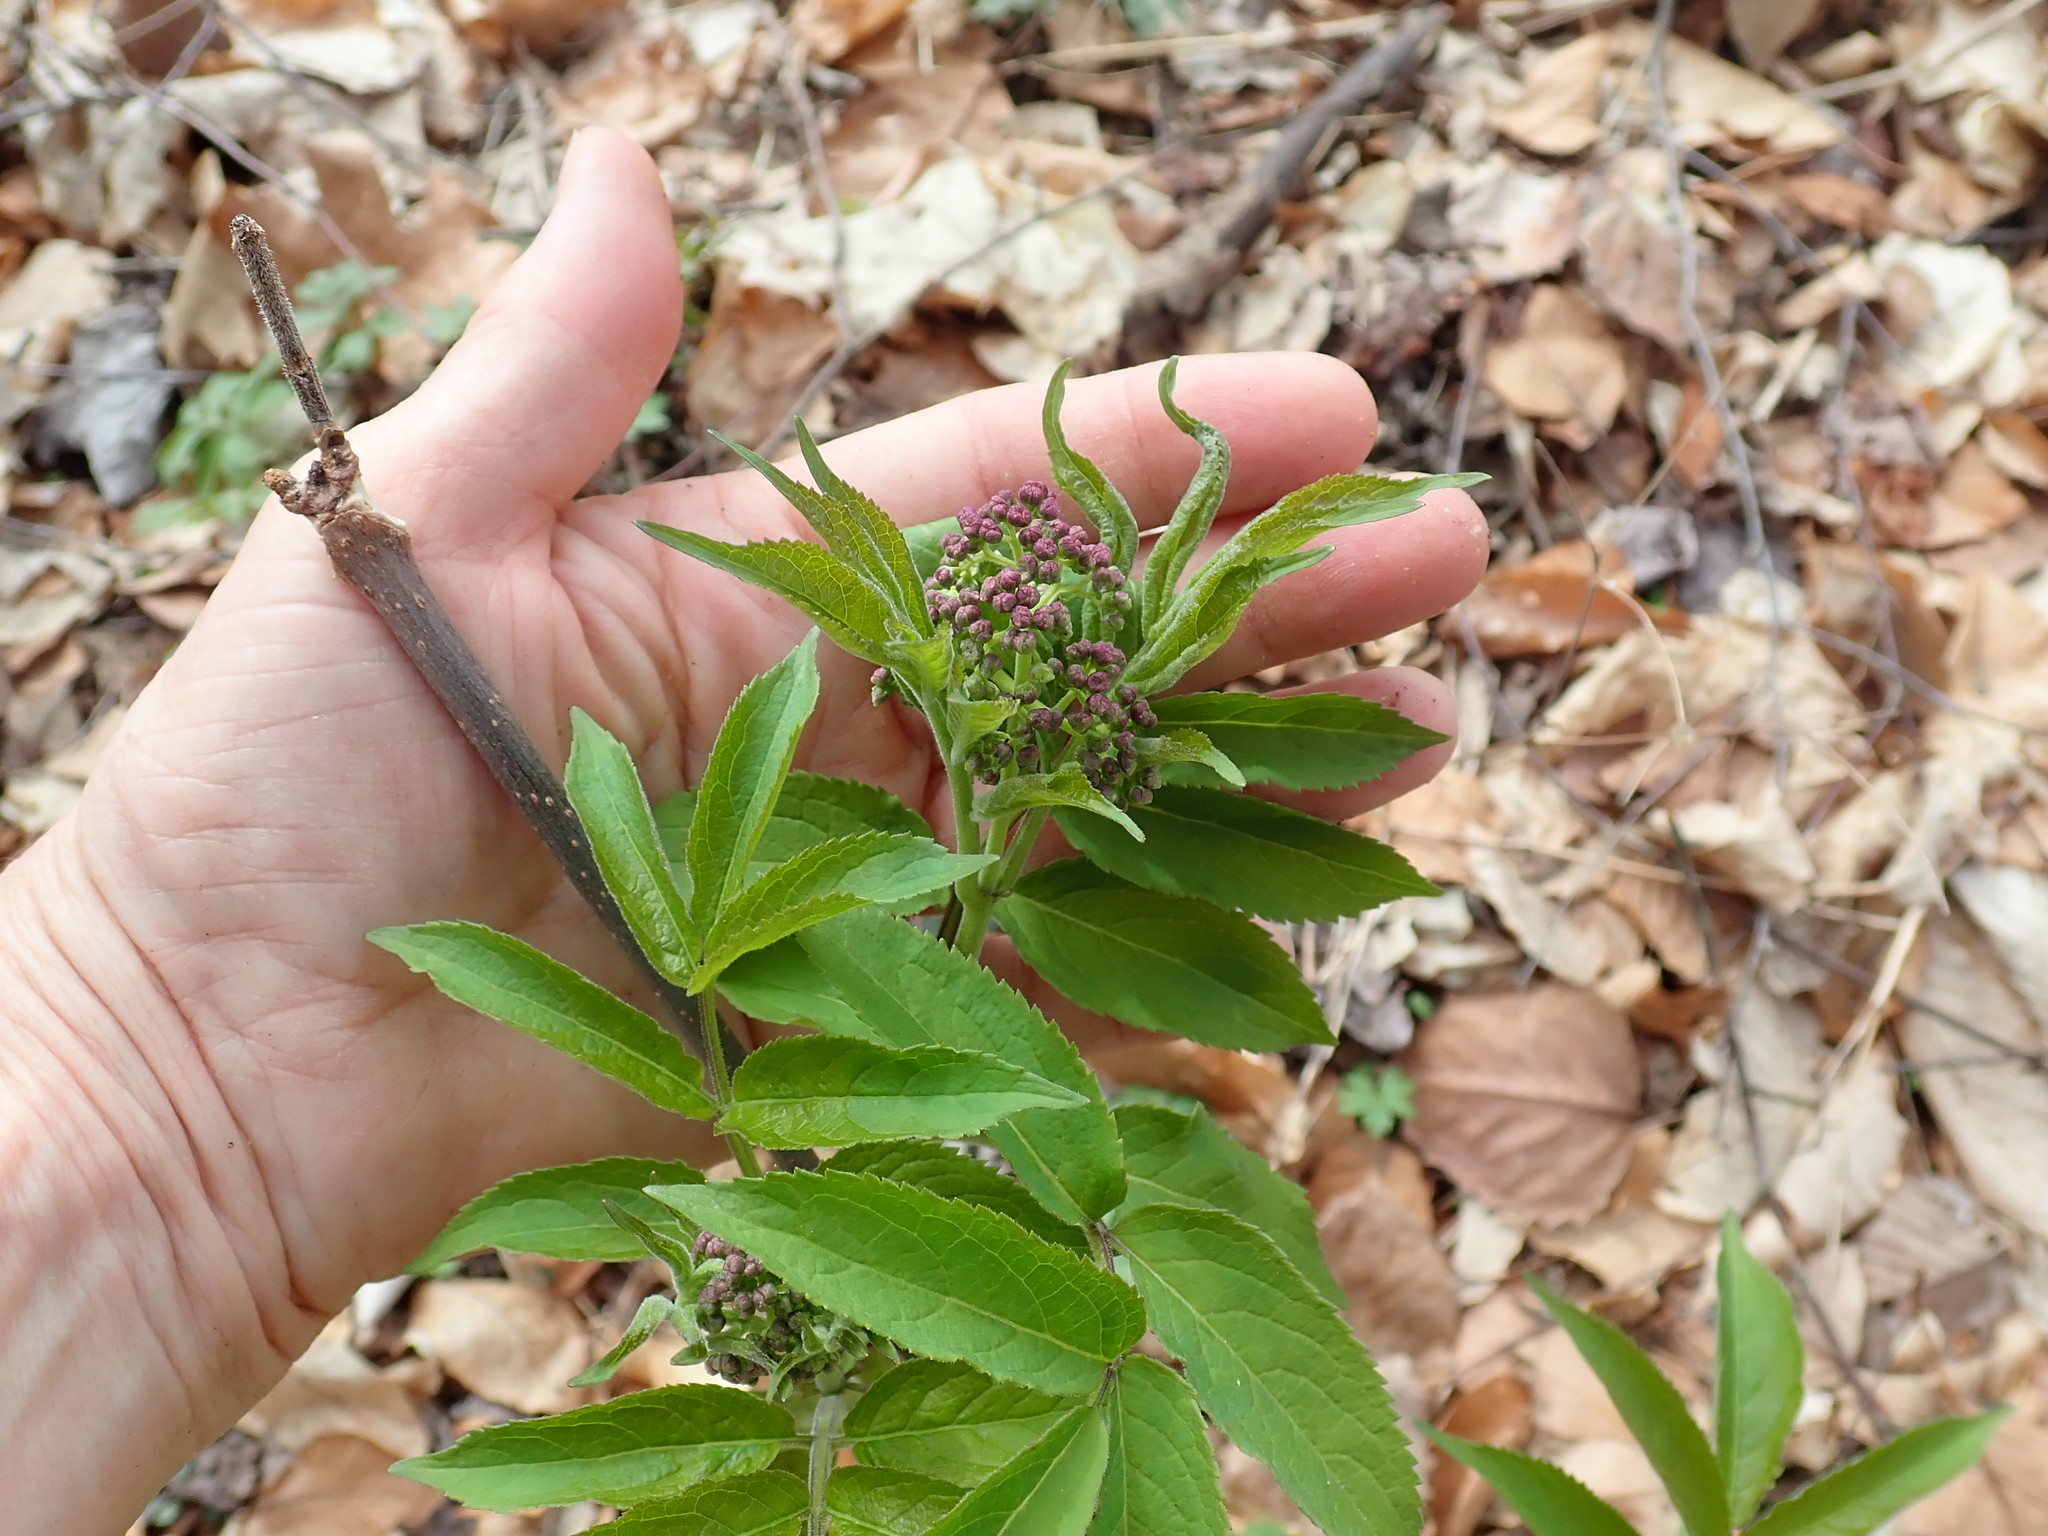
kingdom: Plantae
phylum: Tracheophyta
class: Magnoliopsida
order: Dipsacales
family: Viburnaceae
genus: Sambucus
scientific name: Sambucus racemosa
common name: Red-berried elder
